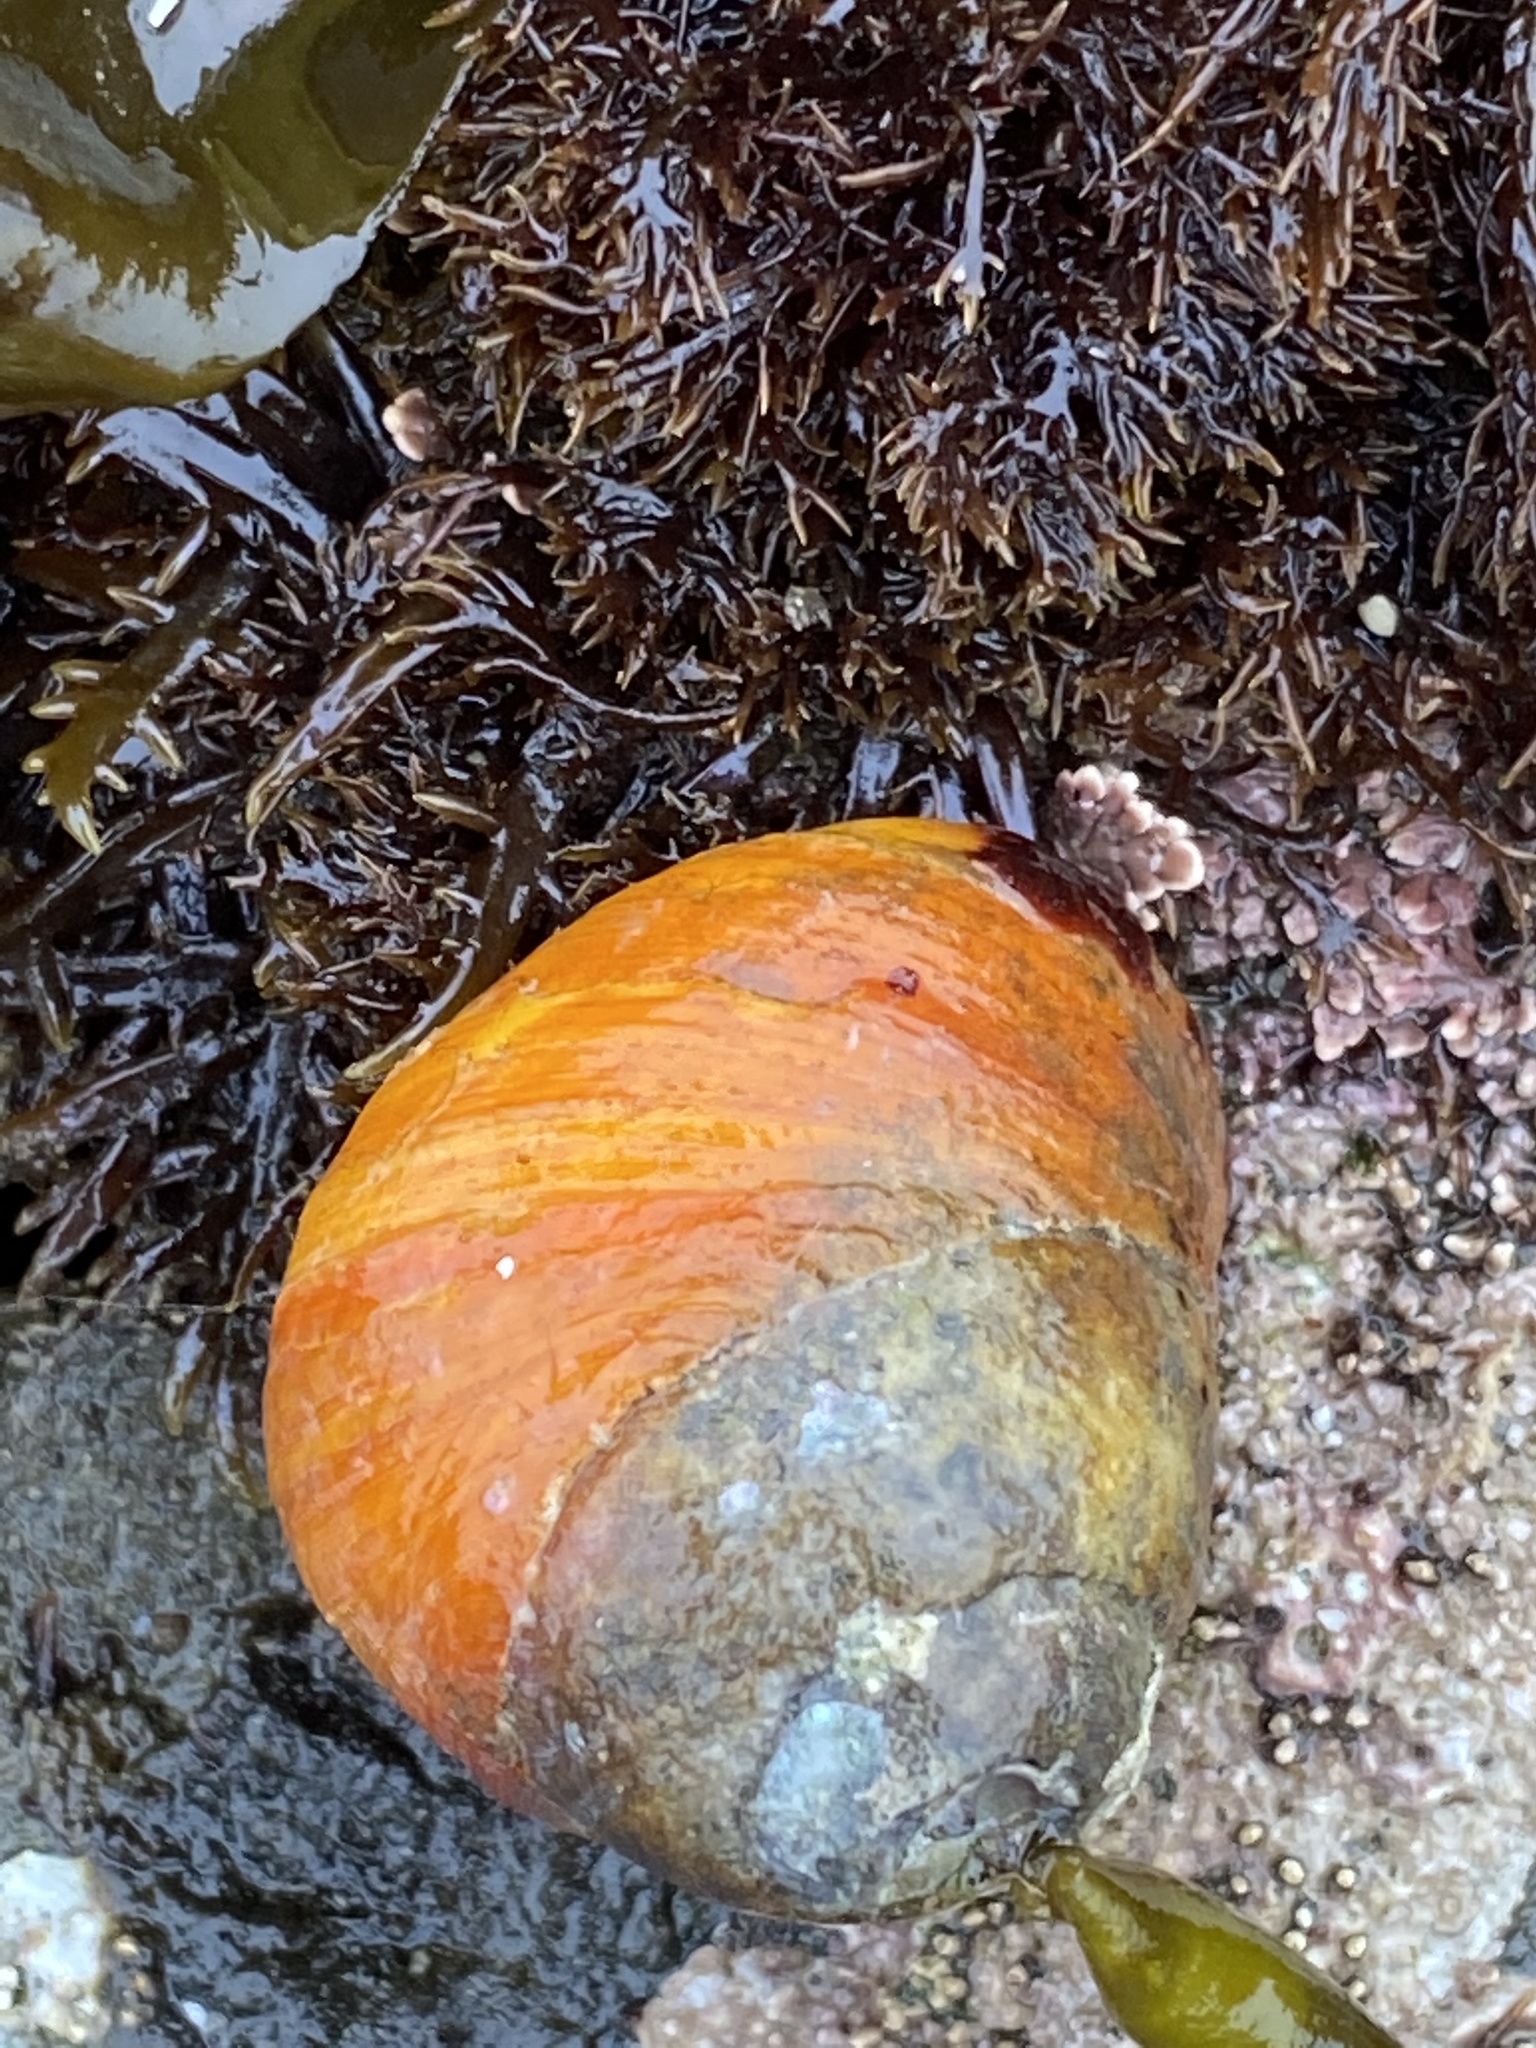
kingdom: Animalia
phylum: Mollusca
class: Gastropoda
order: Trochida
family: Tegulidae
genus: Tegula
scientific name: Tegula brunnea
